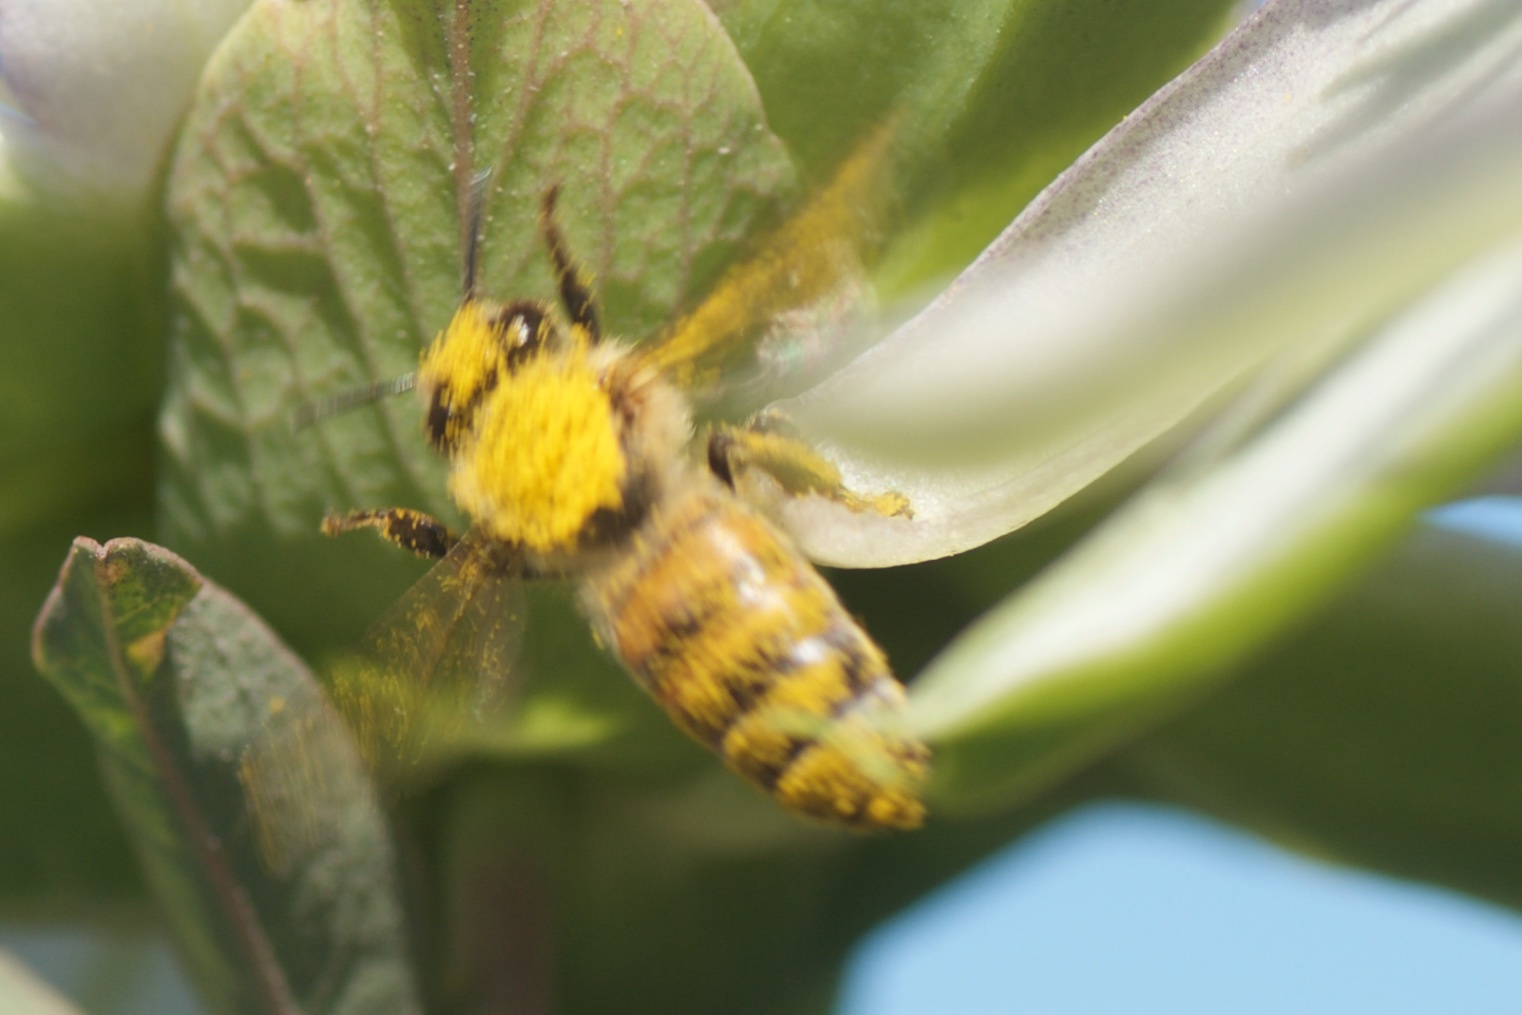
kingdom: Animalia
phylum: Arthropoda
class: Insecta
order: Hymenoptera
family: Apidae
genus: Apis
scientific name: Apis mellifera
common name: Honey bee
